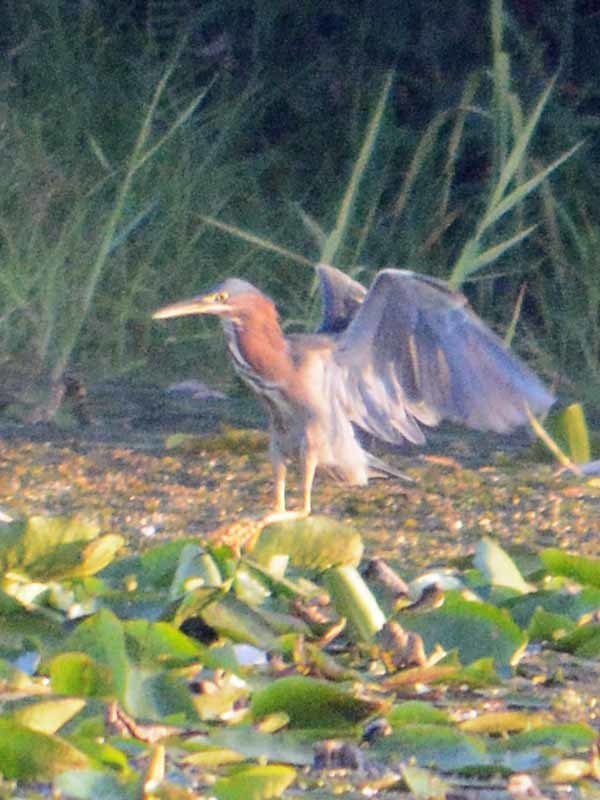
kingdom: Animalia
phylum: Chordata
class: Aves
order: Pelecaniformes
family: Ardeidae
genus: Butorides
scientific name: Butorides virescens
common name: Green heron
